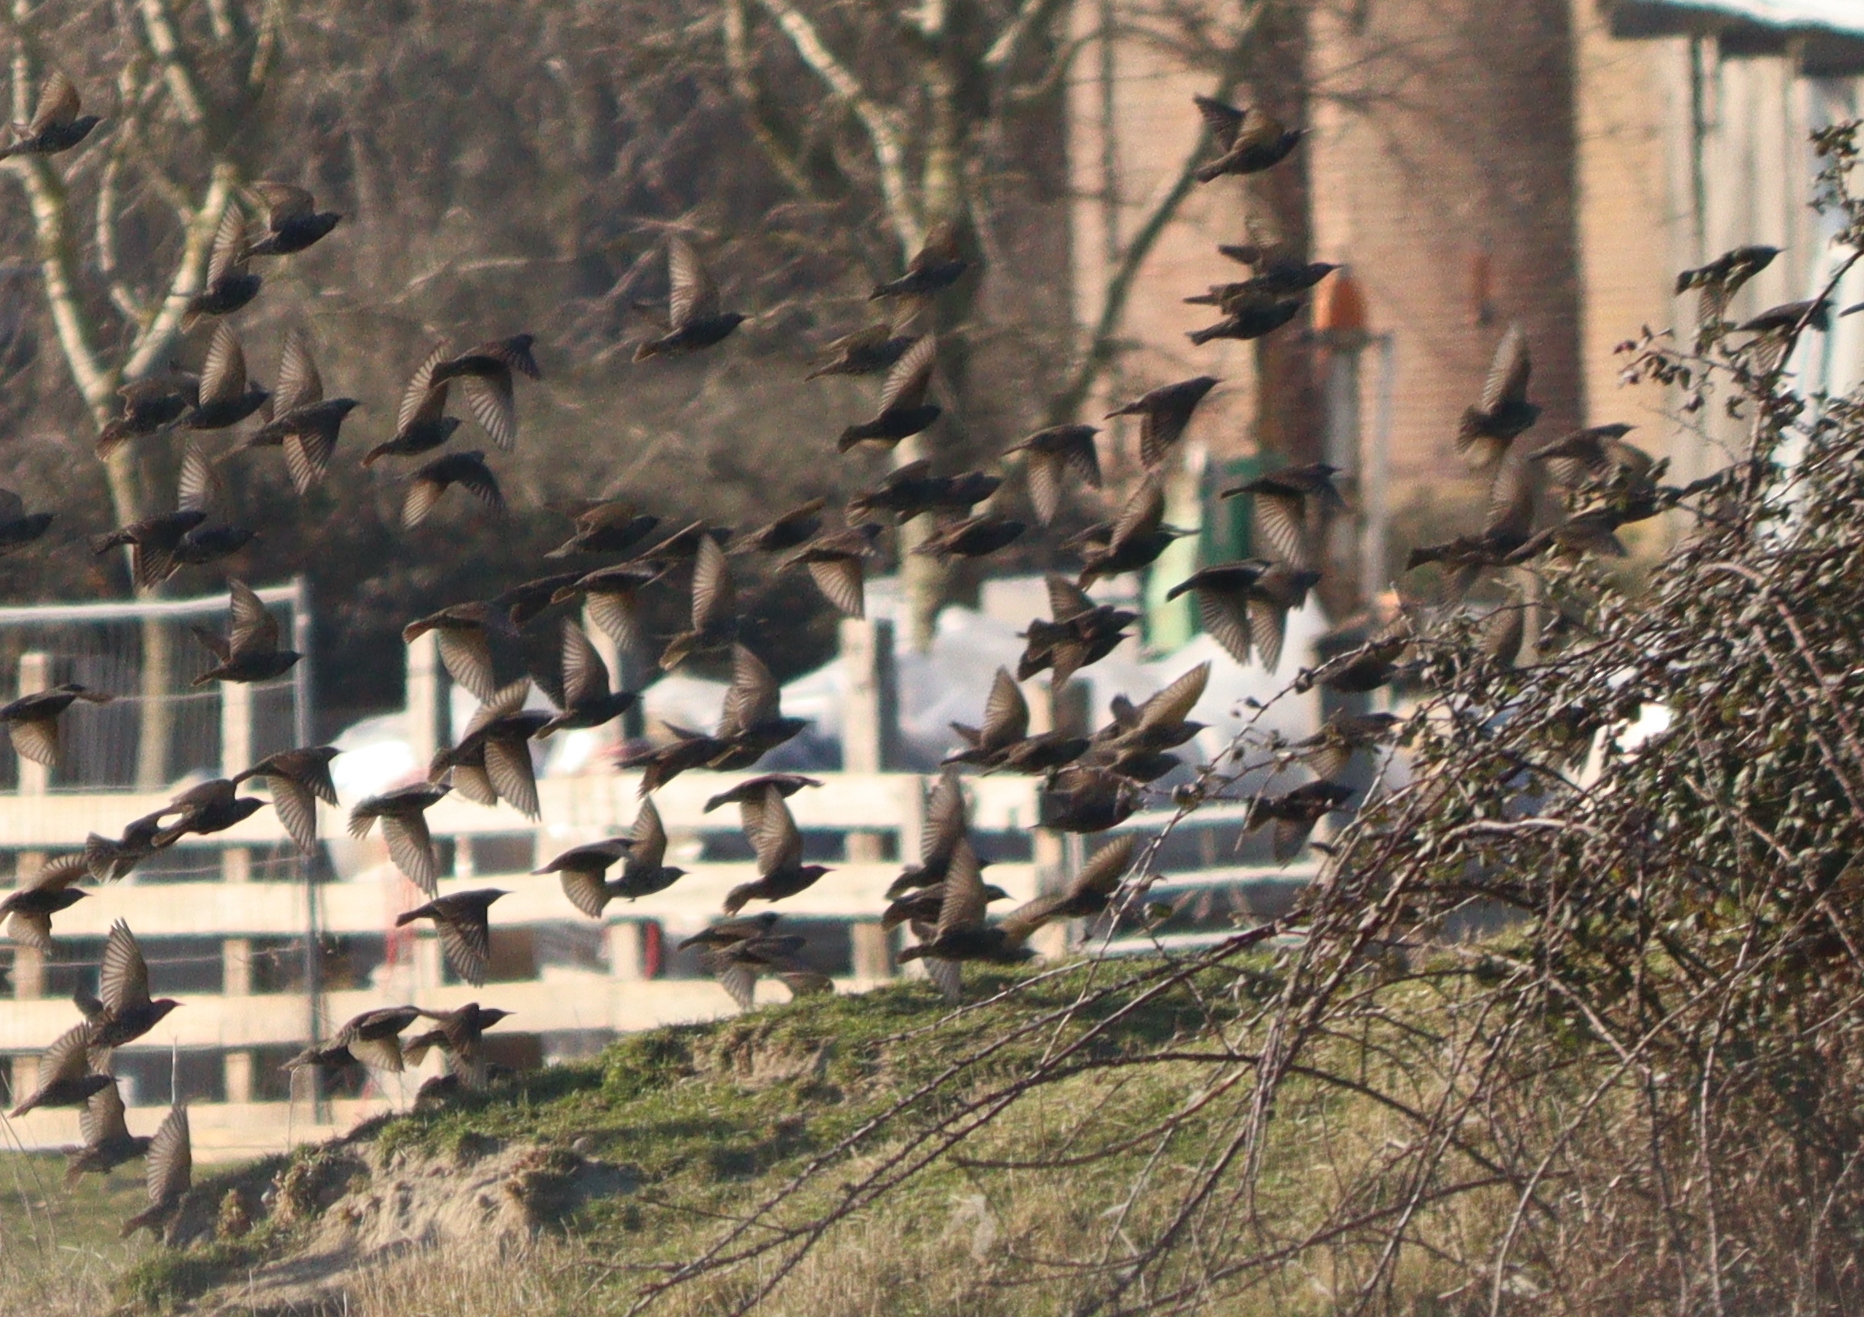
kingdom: Animalia
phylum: Chordata
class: Aves
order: Passeriformes
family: Sturnidae
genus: Sturnus
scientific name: Sturnus vulgaris
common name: Common starling
